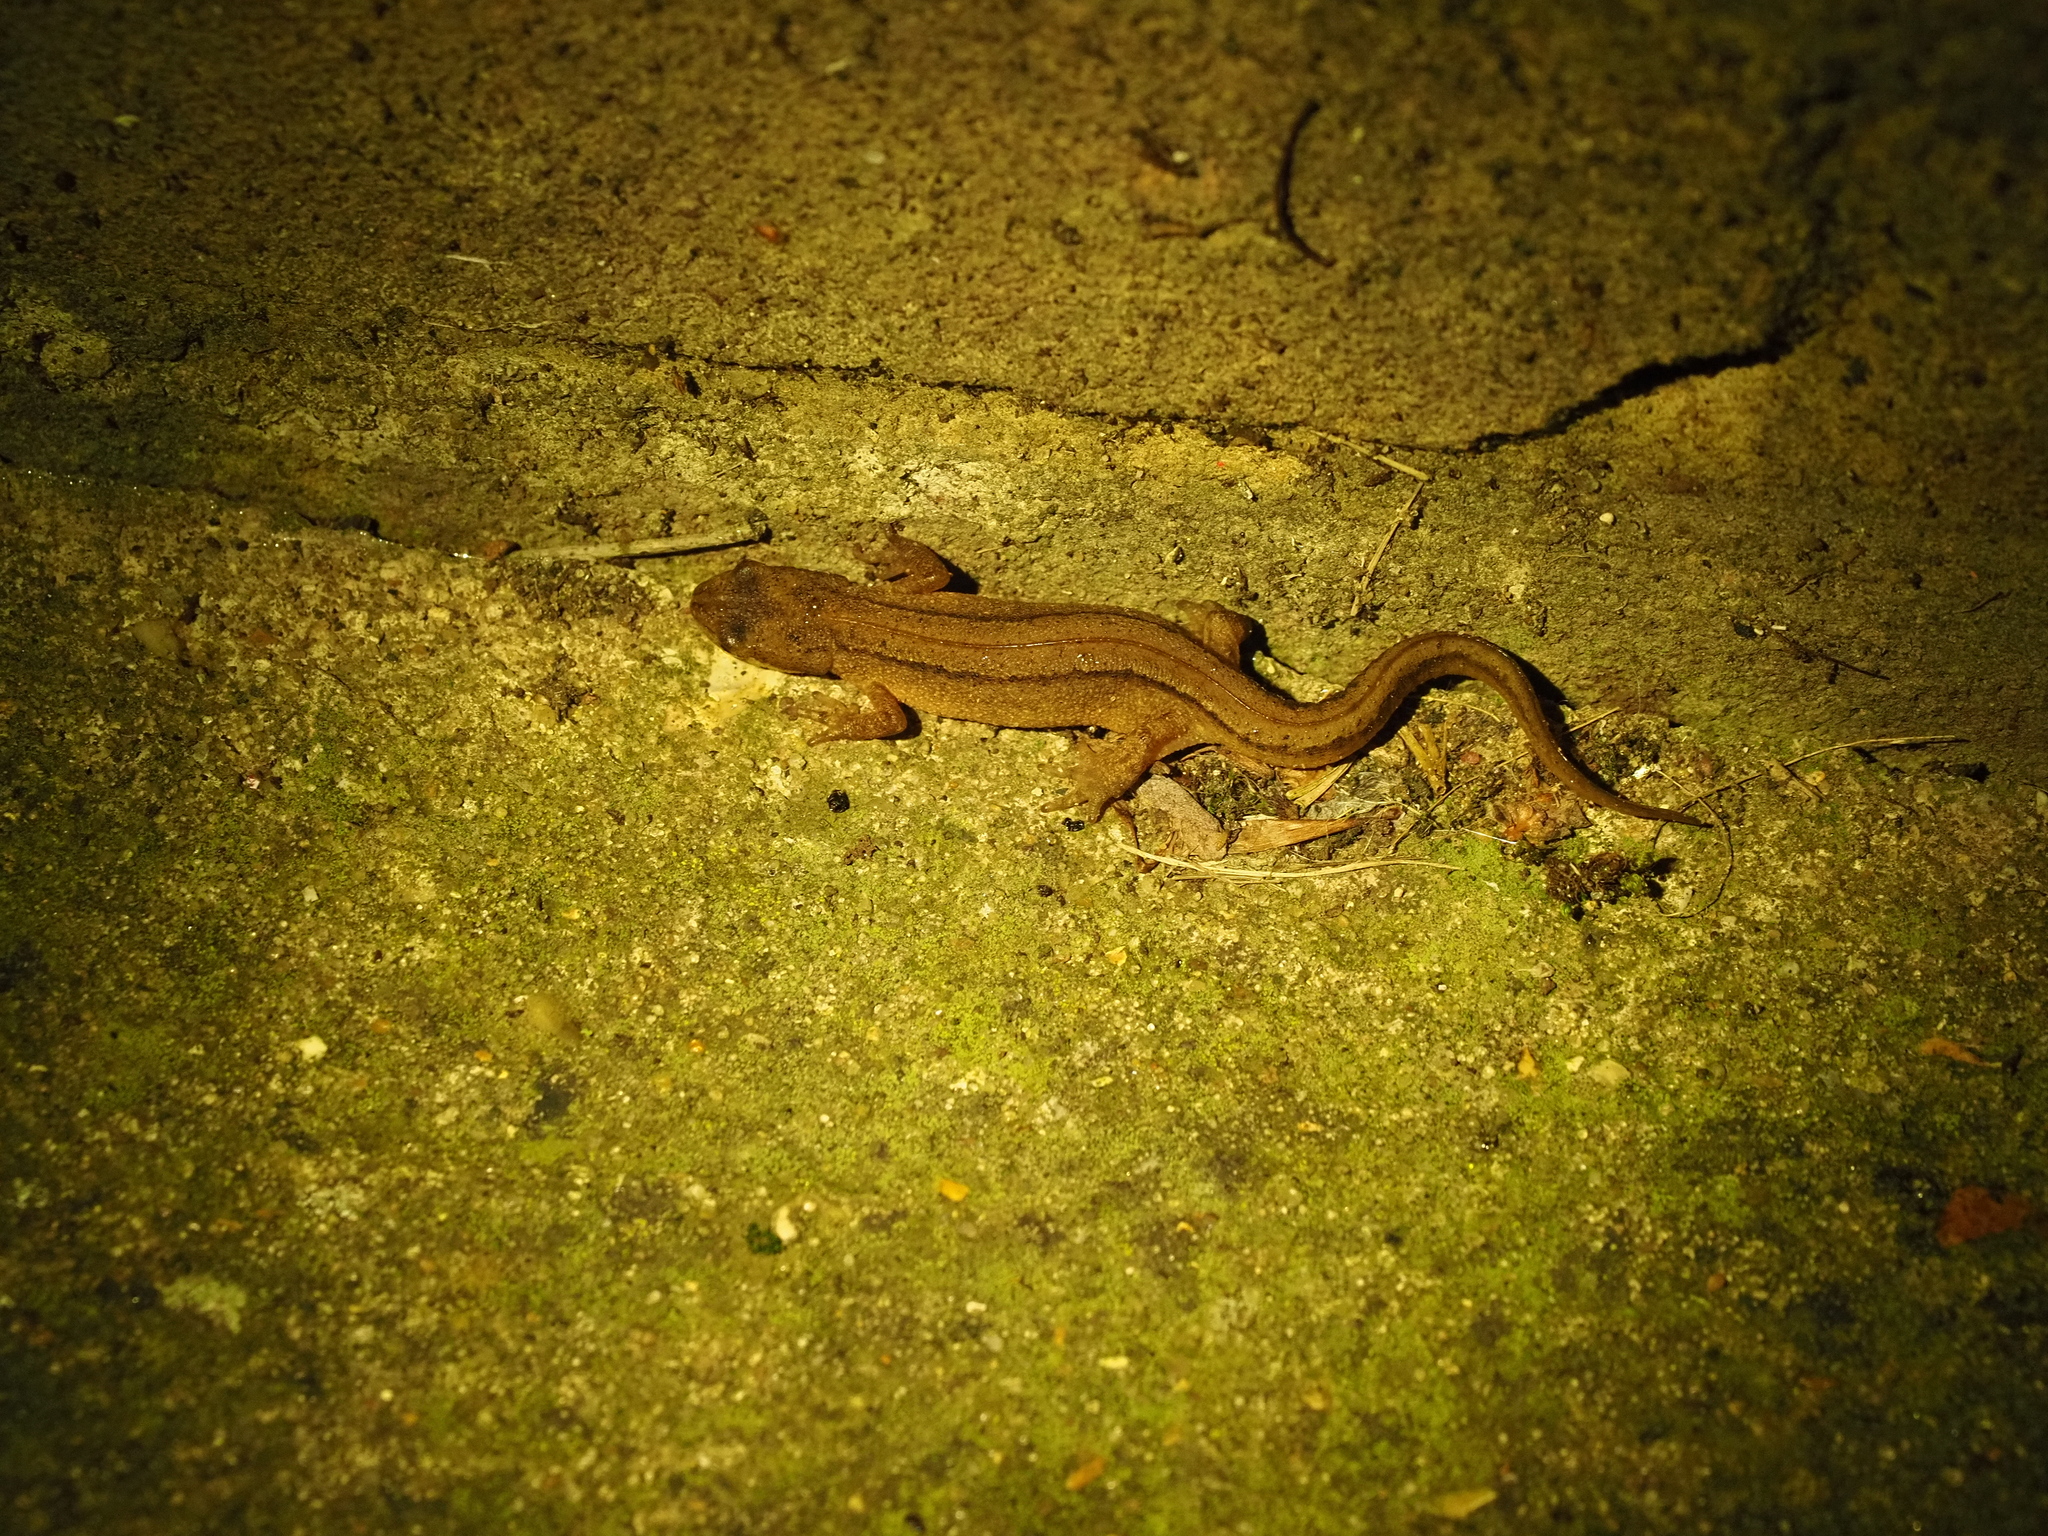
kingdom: Animalia
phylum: Chordata
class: Amphibia
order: Caudata
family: Salamandridae
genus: Lissotriton
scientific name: Lissotriton vulgaris
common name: Smooth newt
